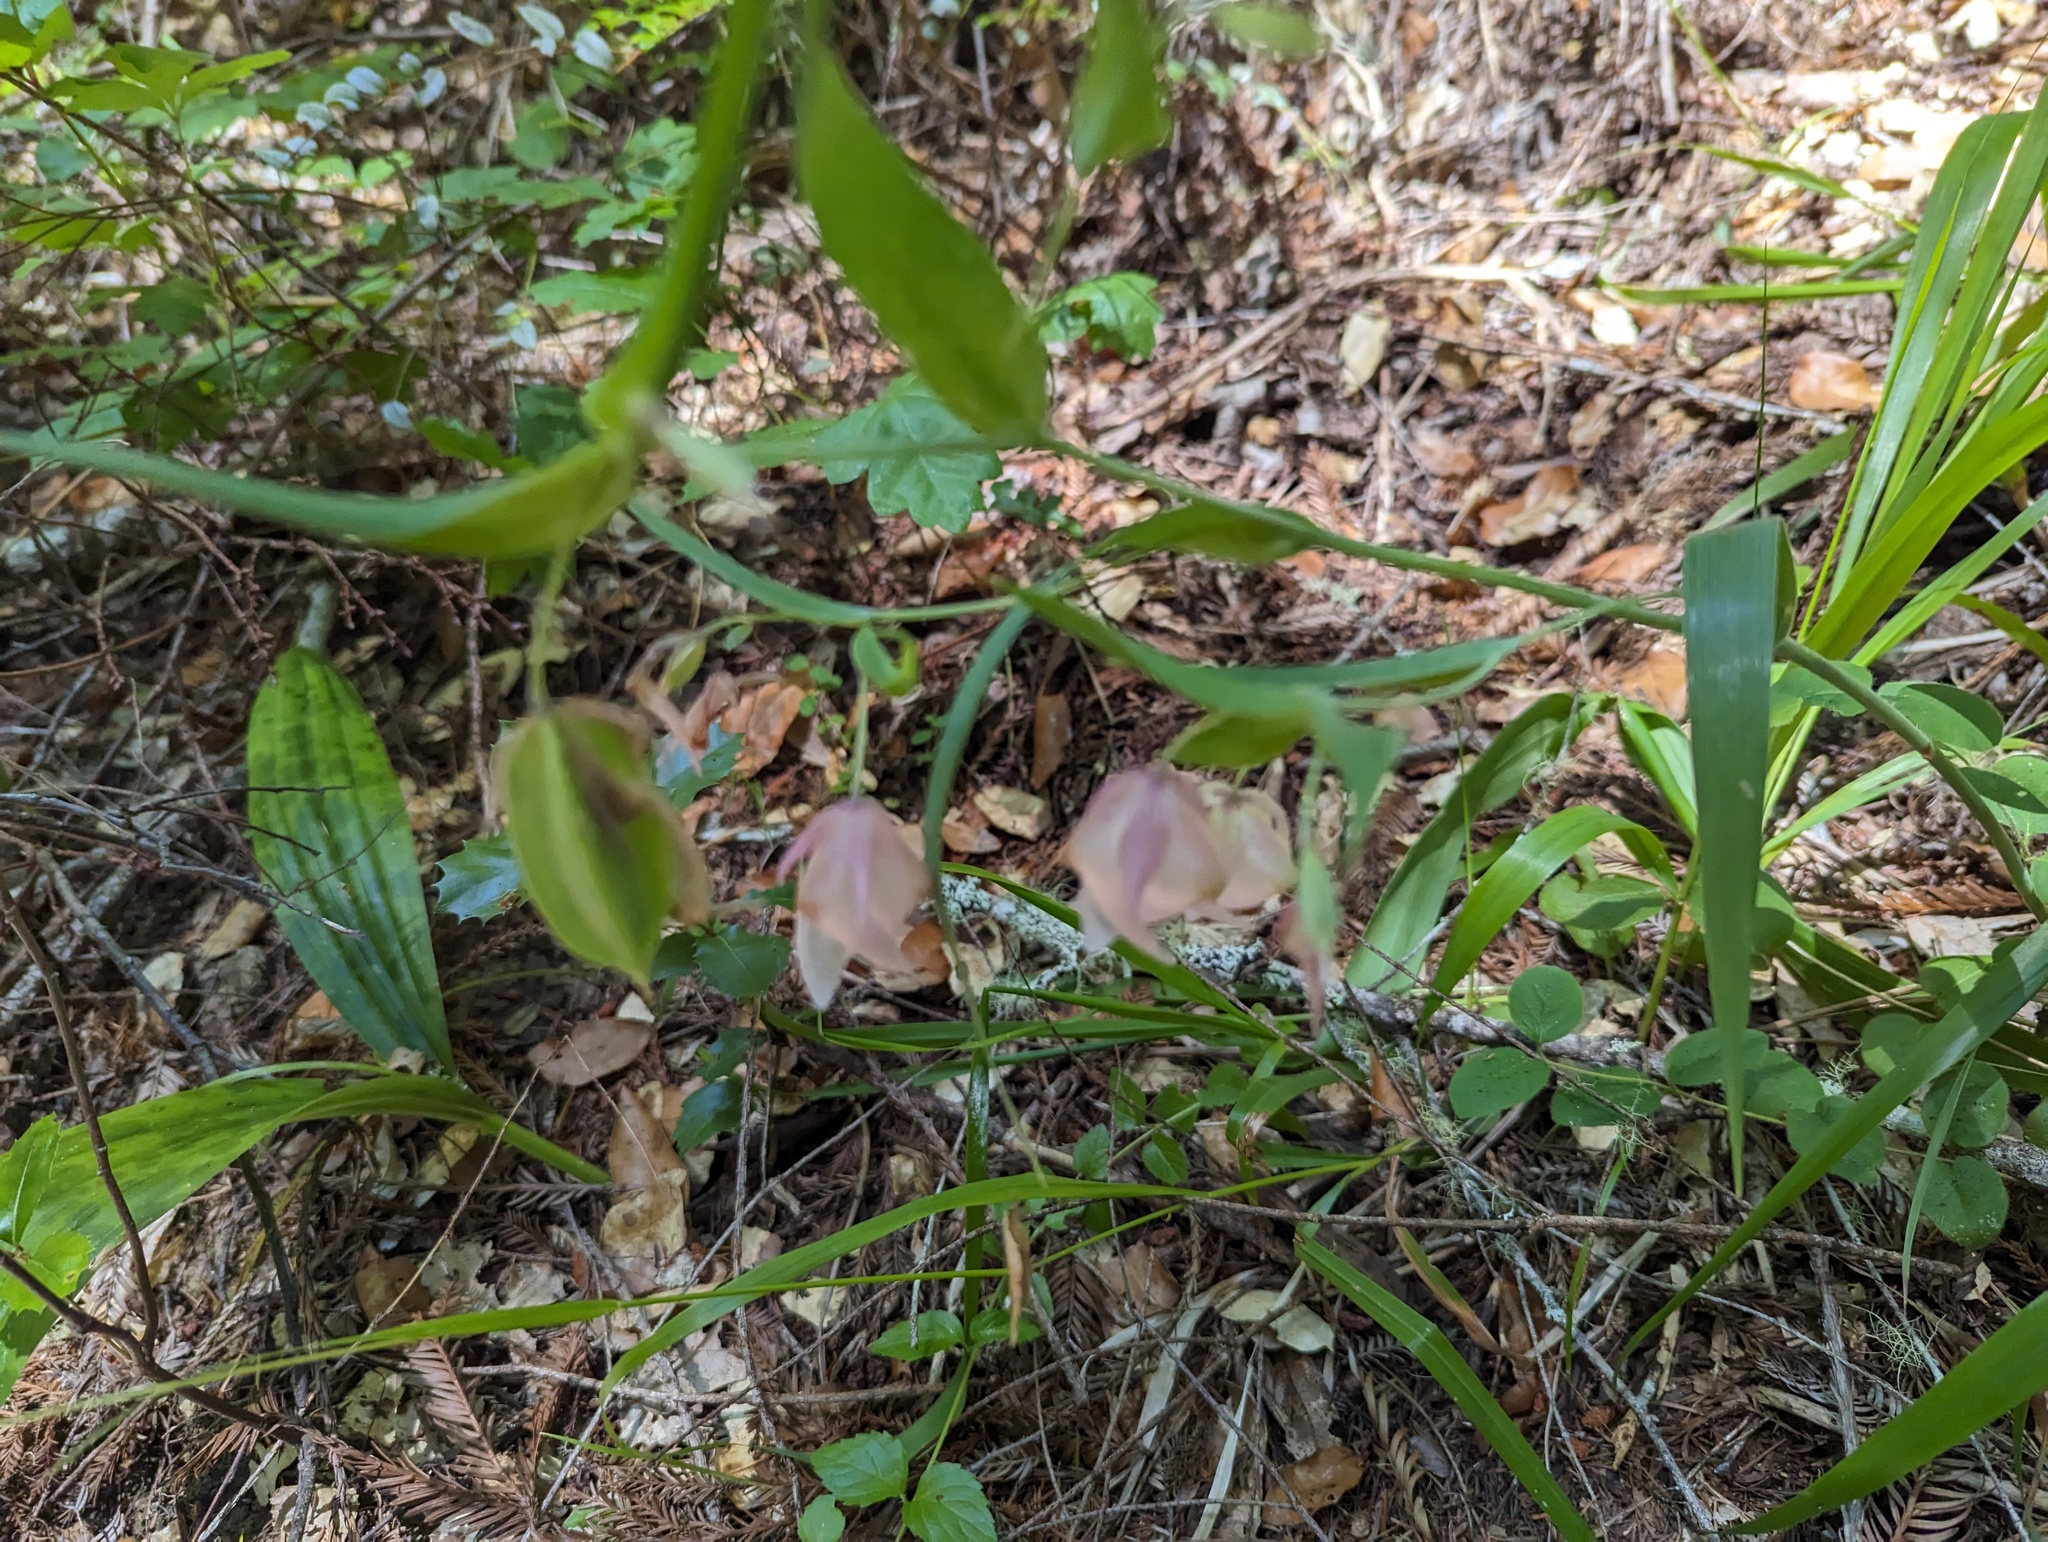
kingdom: Plantae
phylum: Tracheophyta
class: Liliopsida
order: Liliales
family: Liliaceae
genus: Calochortus
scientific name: Calochortus albus
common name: Fairy-lantern
